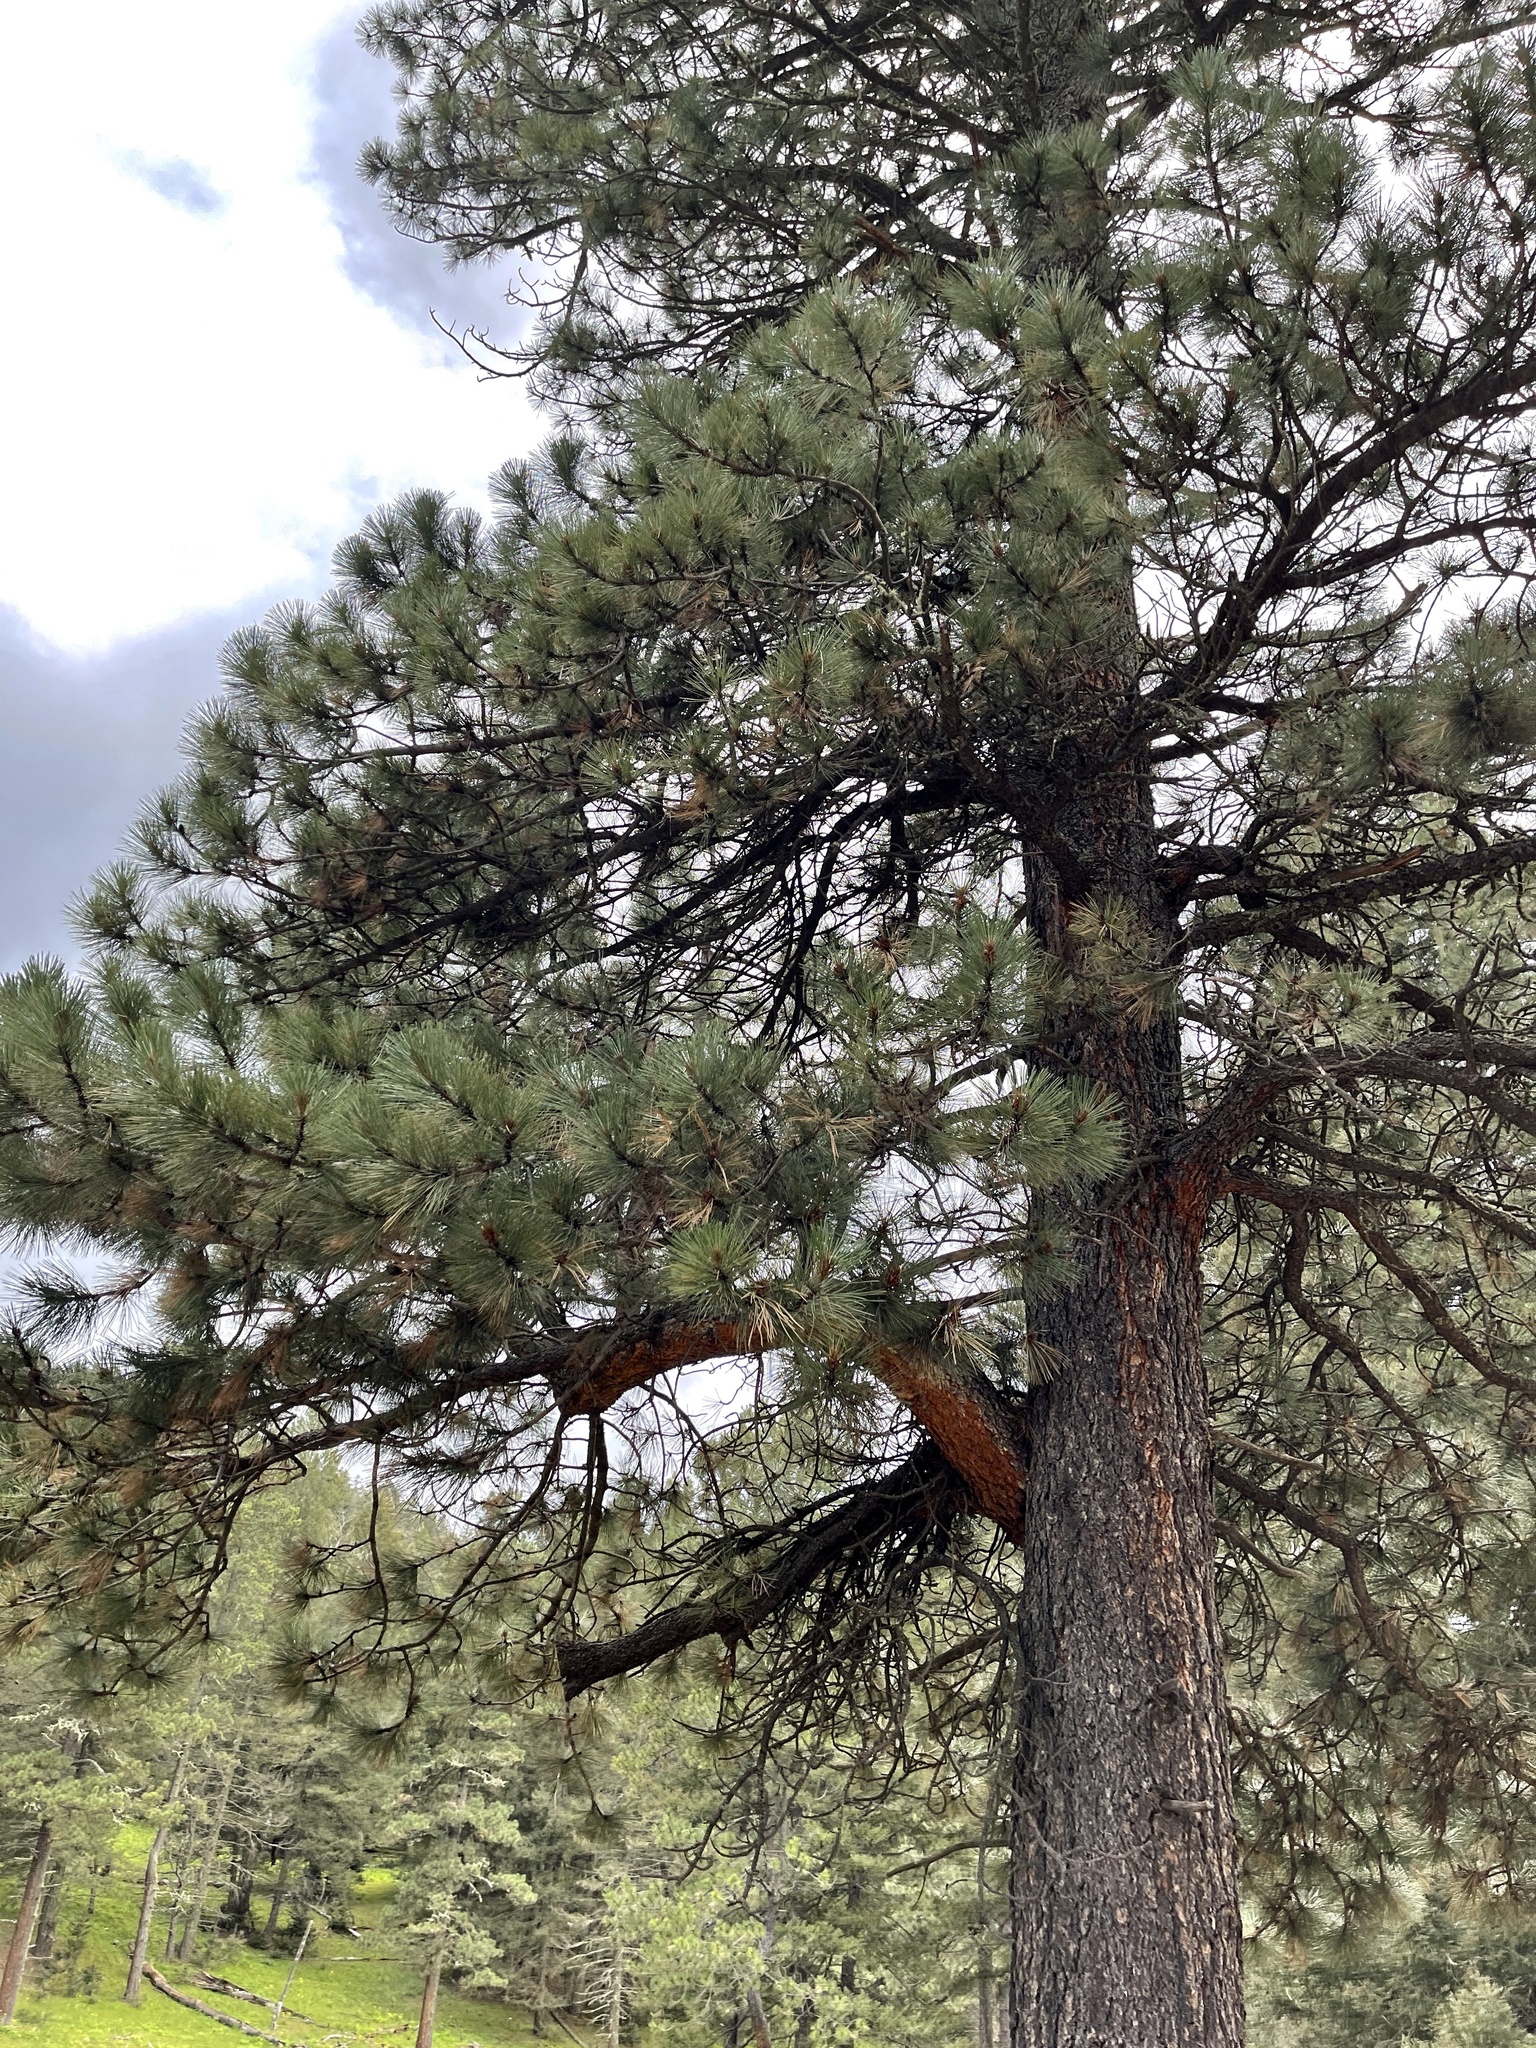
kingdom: Plantae
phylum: Tracheophyta
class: Pinopsida
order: Pinales
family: Pinaceae
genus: Pinus
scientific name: Pinus ponderosa
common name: Western yellow-pine
